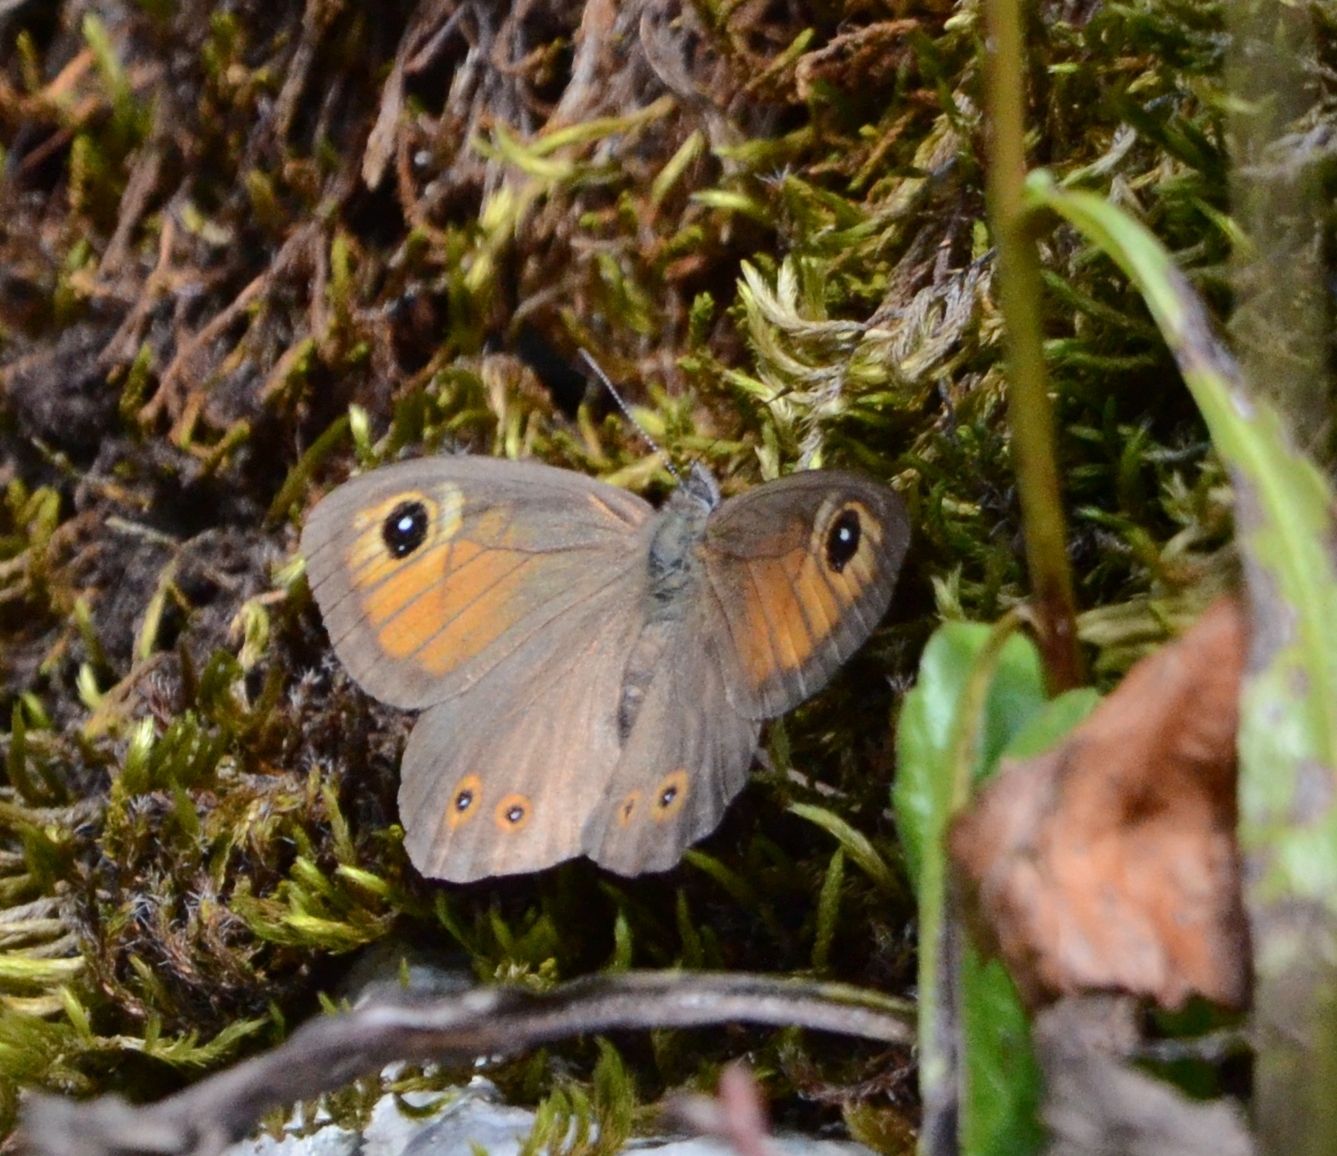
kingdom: Animalia
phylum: Arthropoda
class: Insecta
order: Lepidoptera
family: Nymphalidae
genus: Pararge
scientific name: Pararge Lasiommata maera
